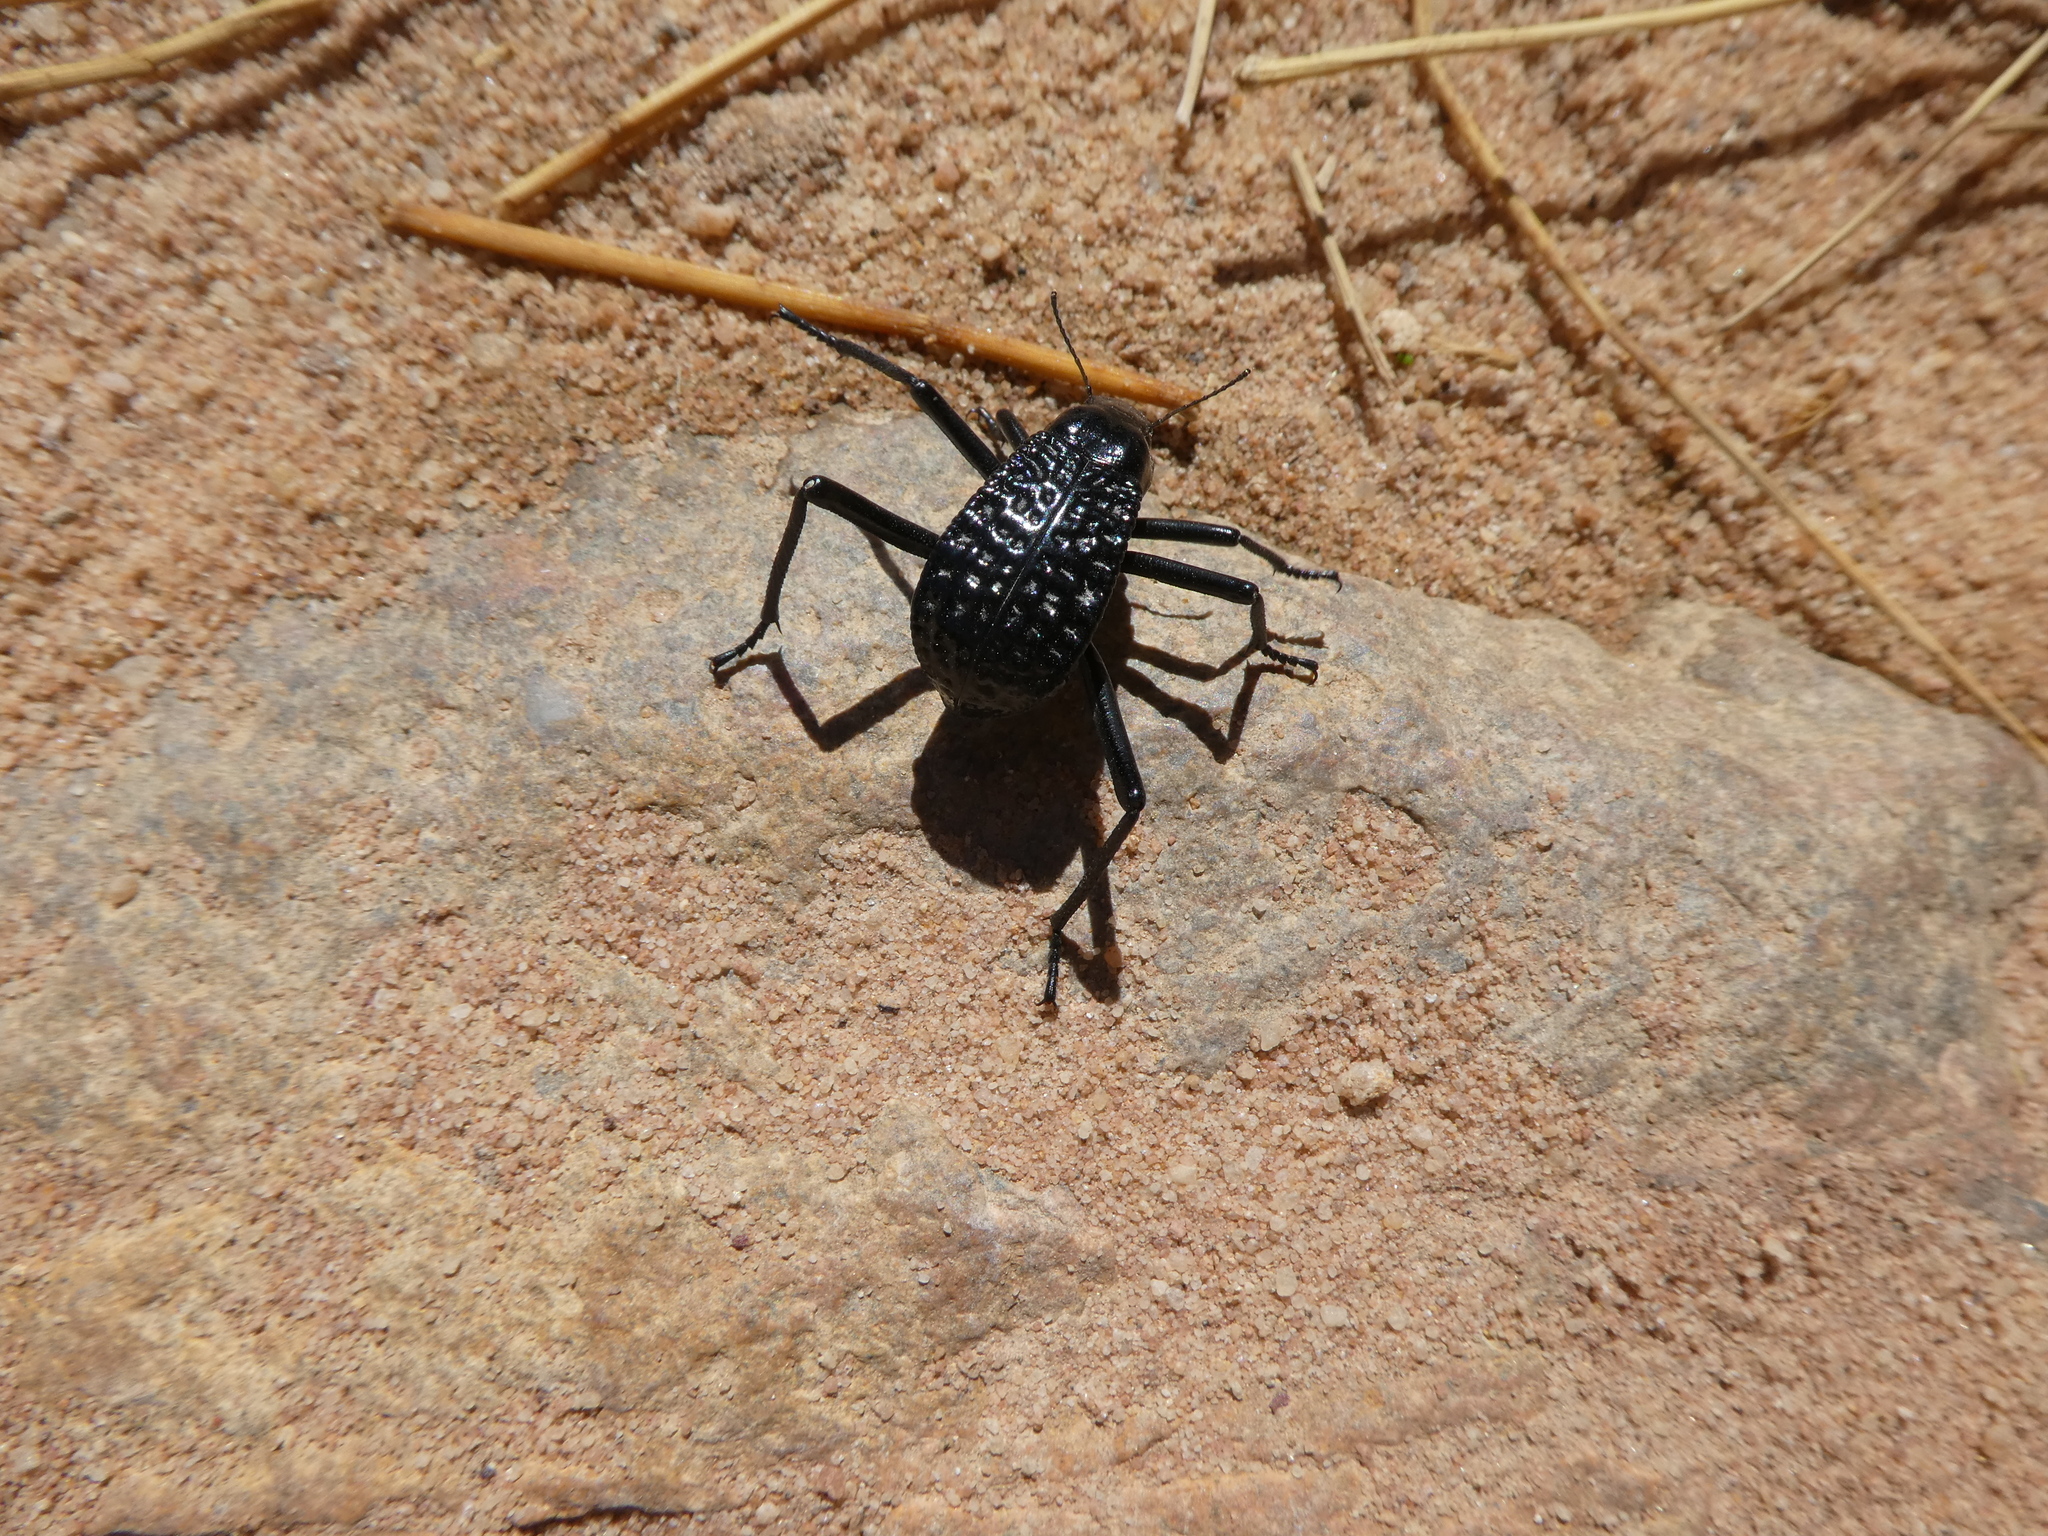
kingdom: Animalia
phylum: Arthropoda
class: Insecta
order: Coleoptera
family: Tenebrionidae
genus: Adesmia
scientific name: Adesmia cancellata
